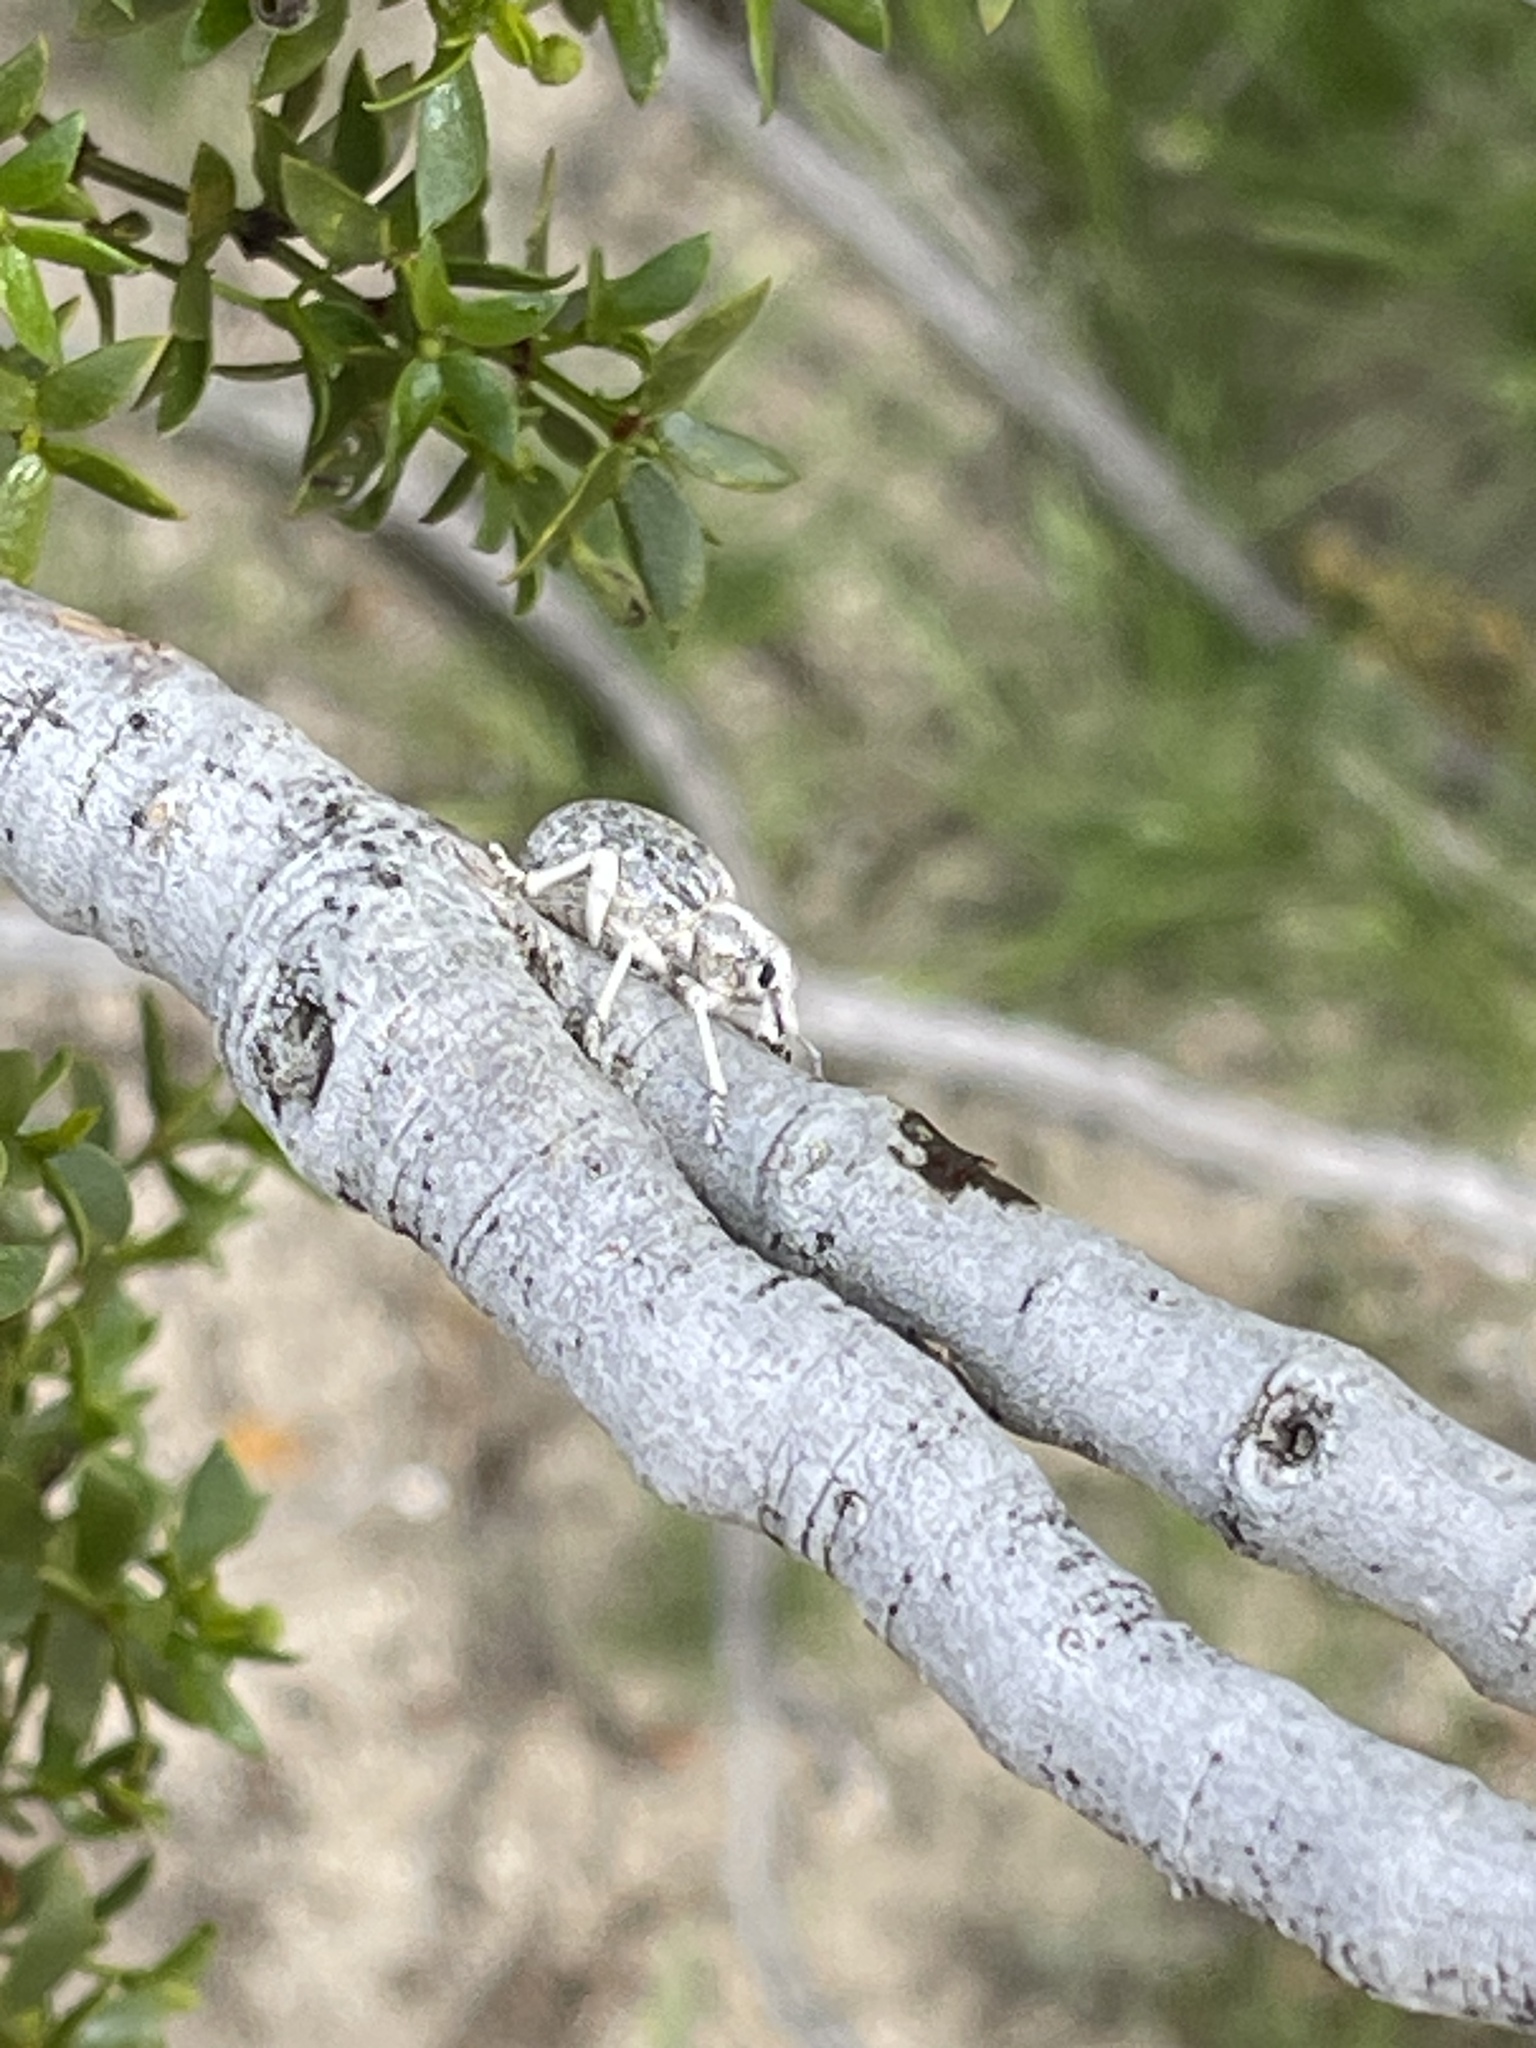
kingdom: Animalia
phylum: Arthropoda
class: Insecta
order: Coleoptera
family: Curculionidae
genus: Ophryastes
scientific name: Ophryastes desertus
